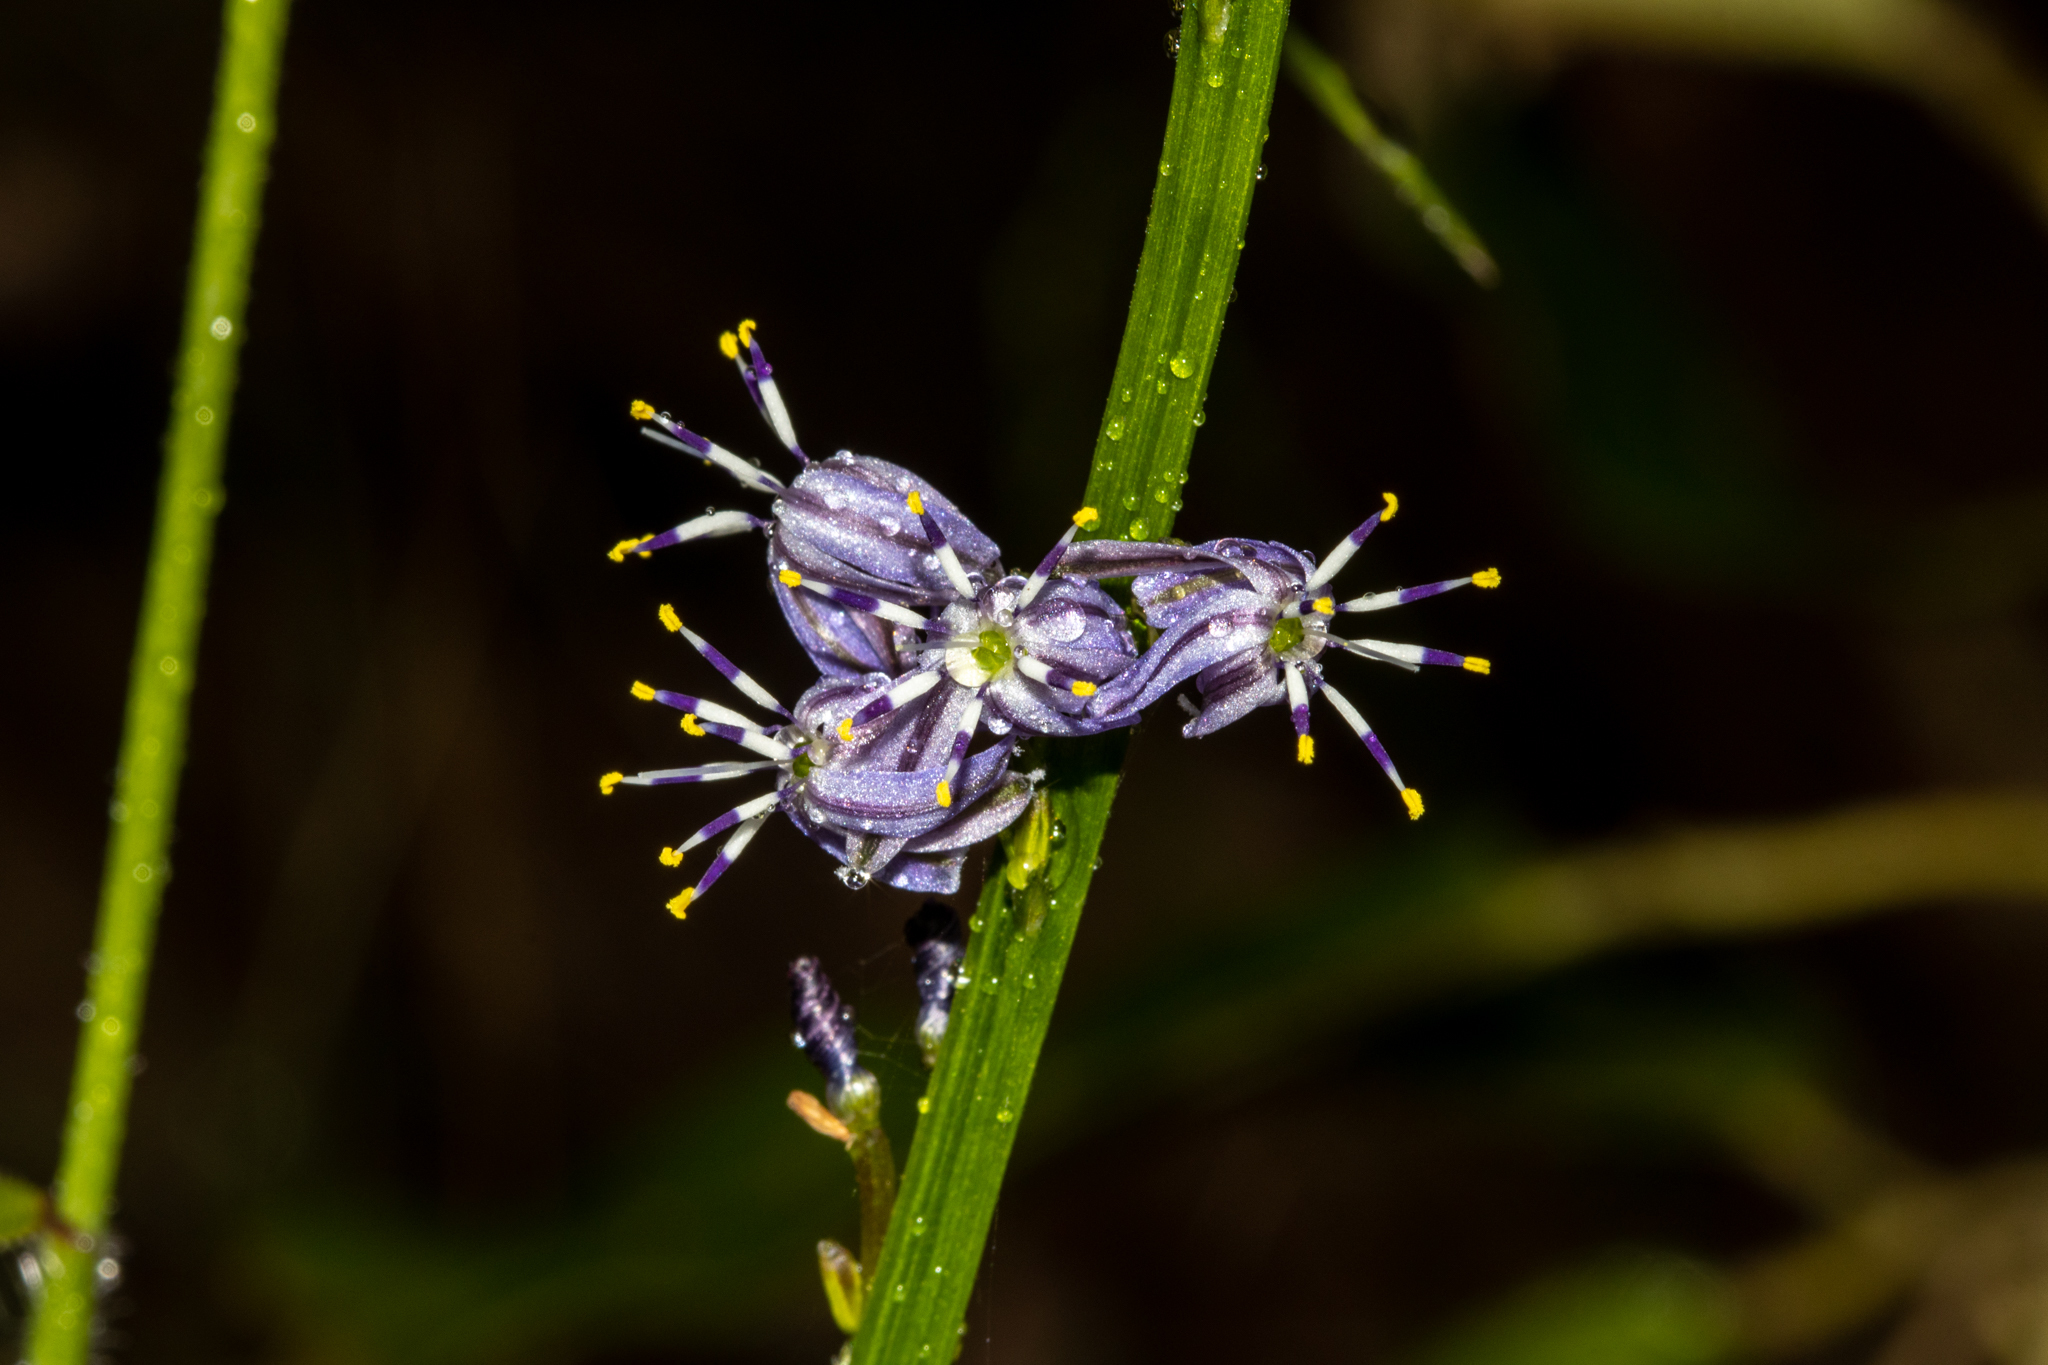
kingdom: Plantae
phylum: Tracheophyta
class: Liliopsida
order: Asparagales
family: Asphodelaceae
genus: Caesia
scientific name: Caesia parviflora
